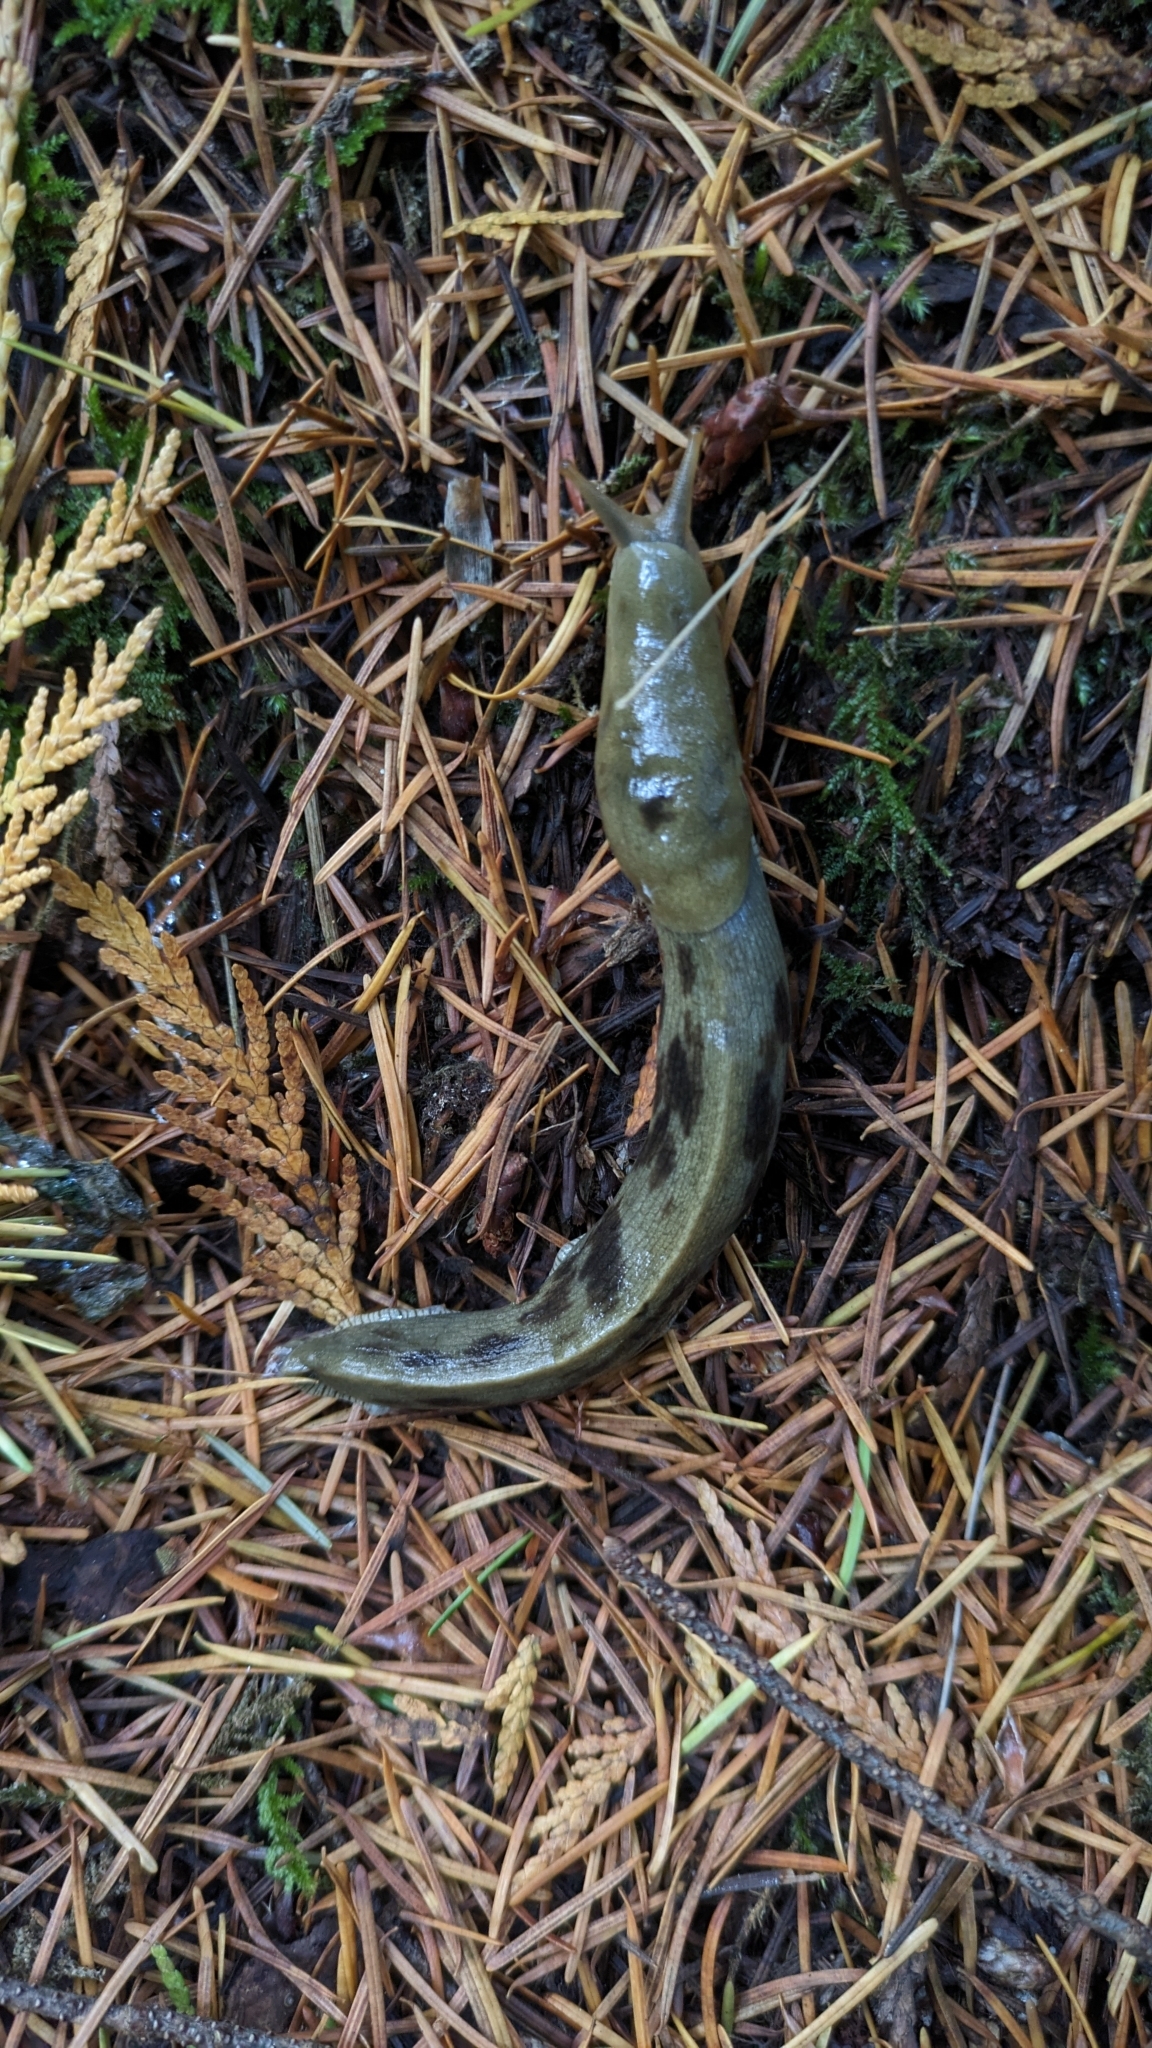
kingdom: Animalia
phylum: Mollusca
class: Gastropoda
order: Stylommatophora
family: Ariolimacidae
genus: Ariolimax
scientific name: Ariolimax columbianus
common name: Pacific banana slug
